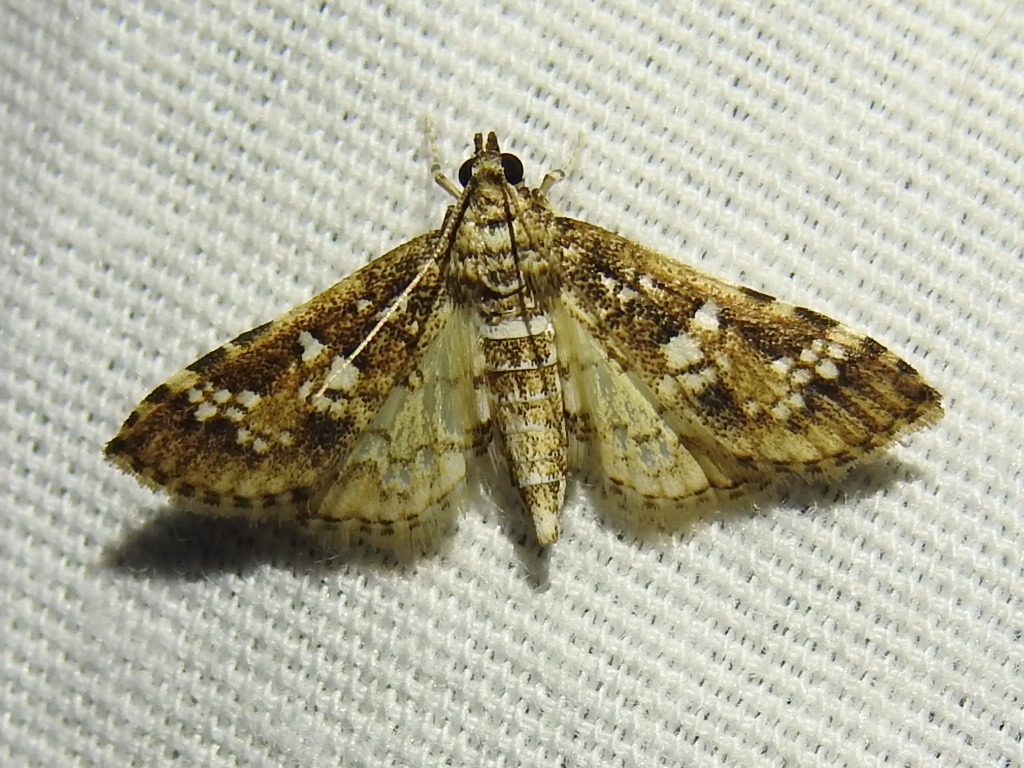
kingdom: Animalia
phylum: Arthropoda
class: Insecta
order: Lepidoptera
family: Crambidae
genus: Samea
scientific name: Samea ecclesialis
